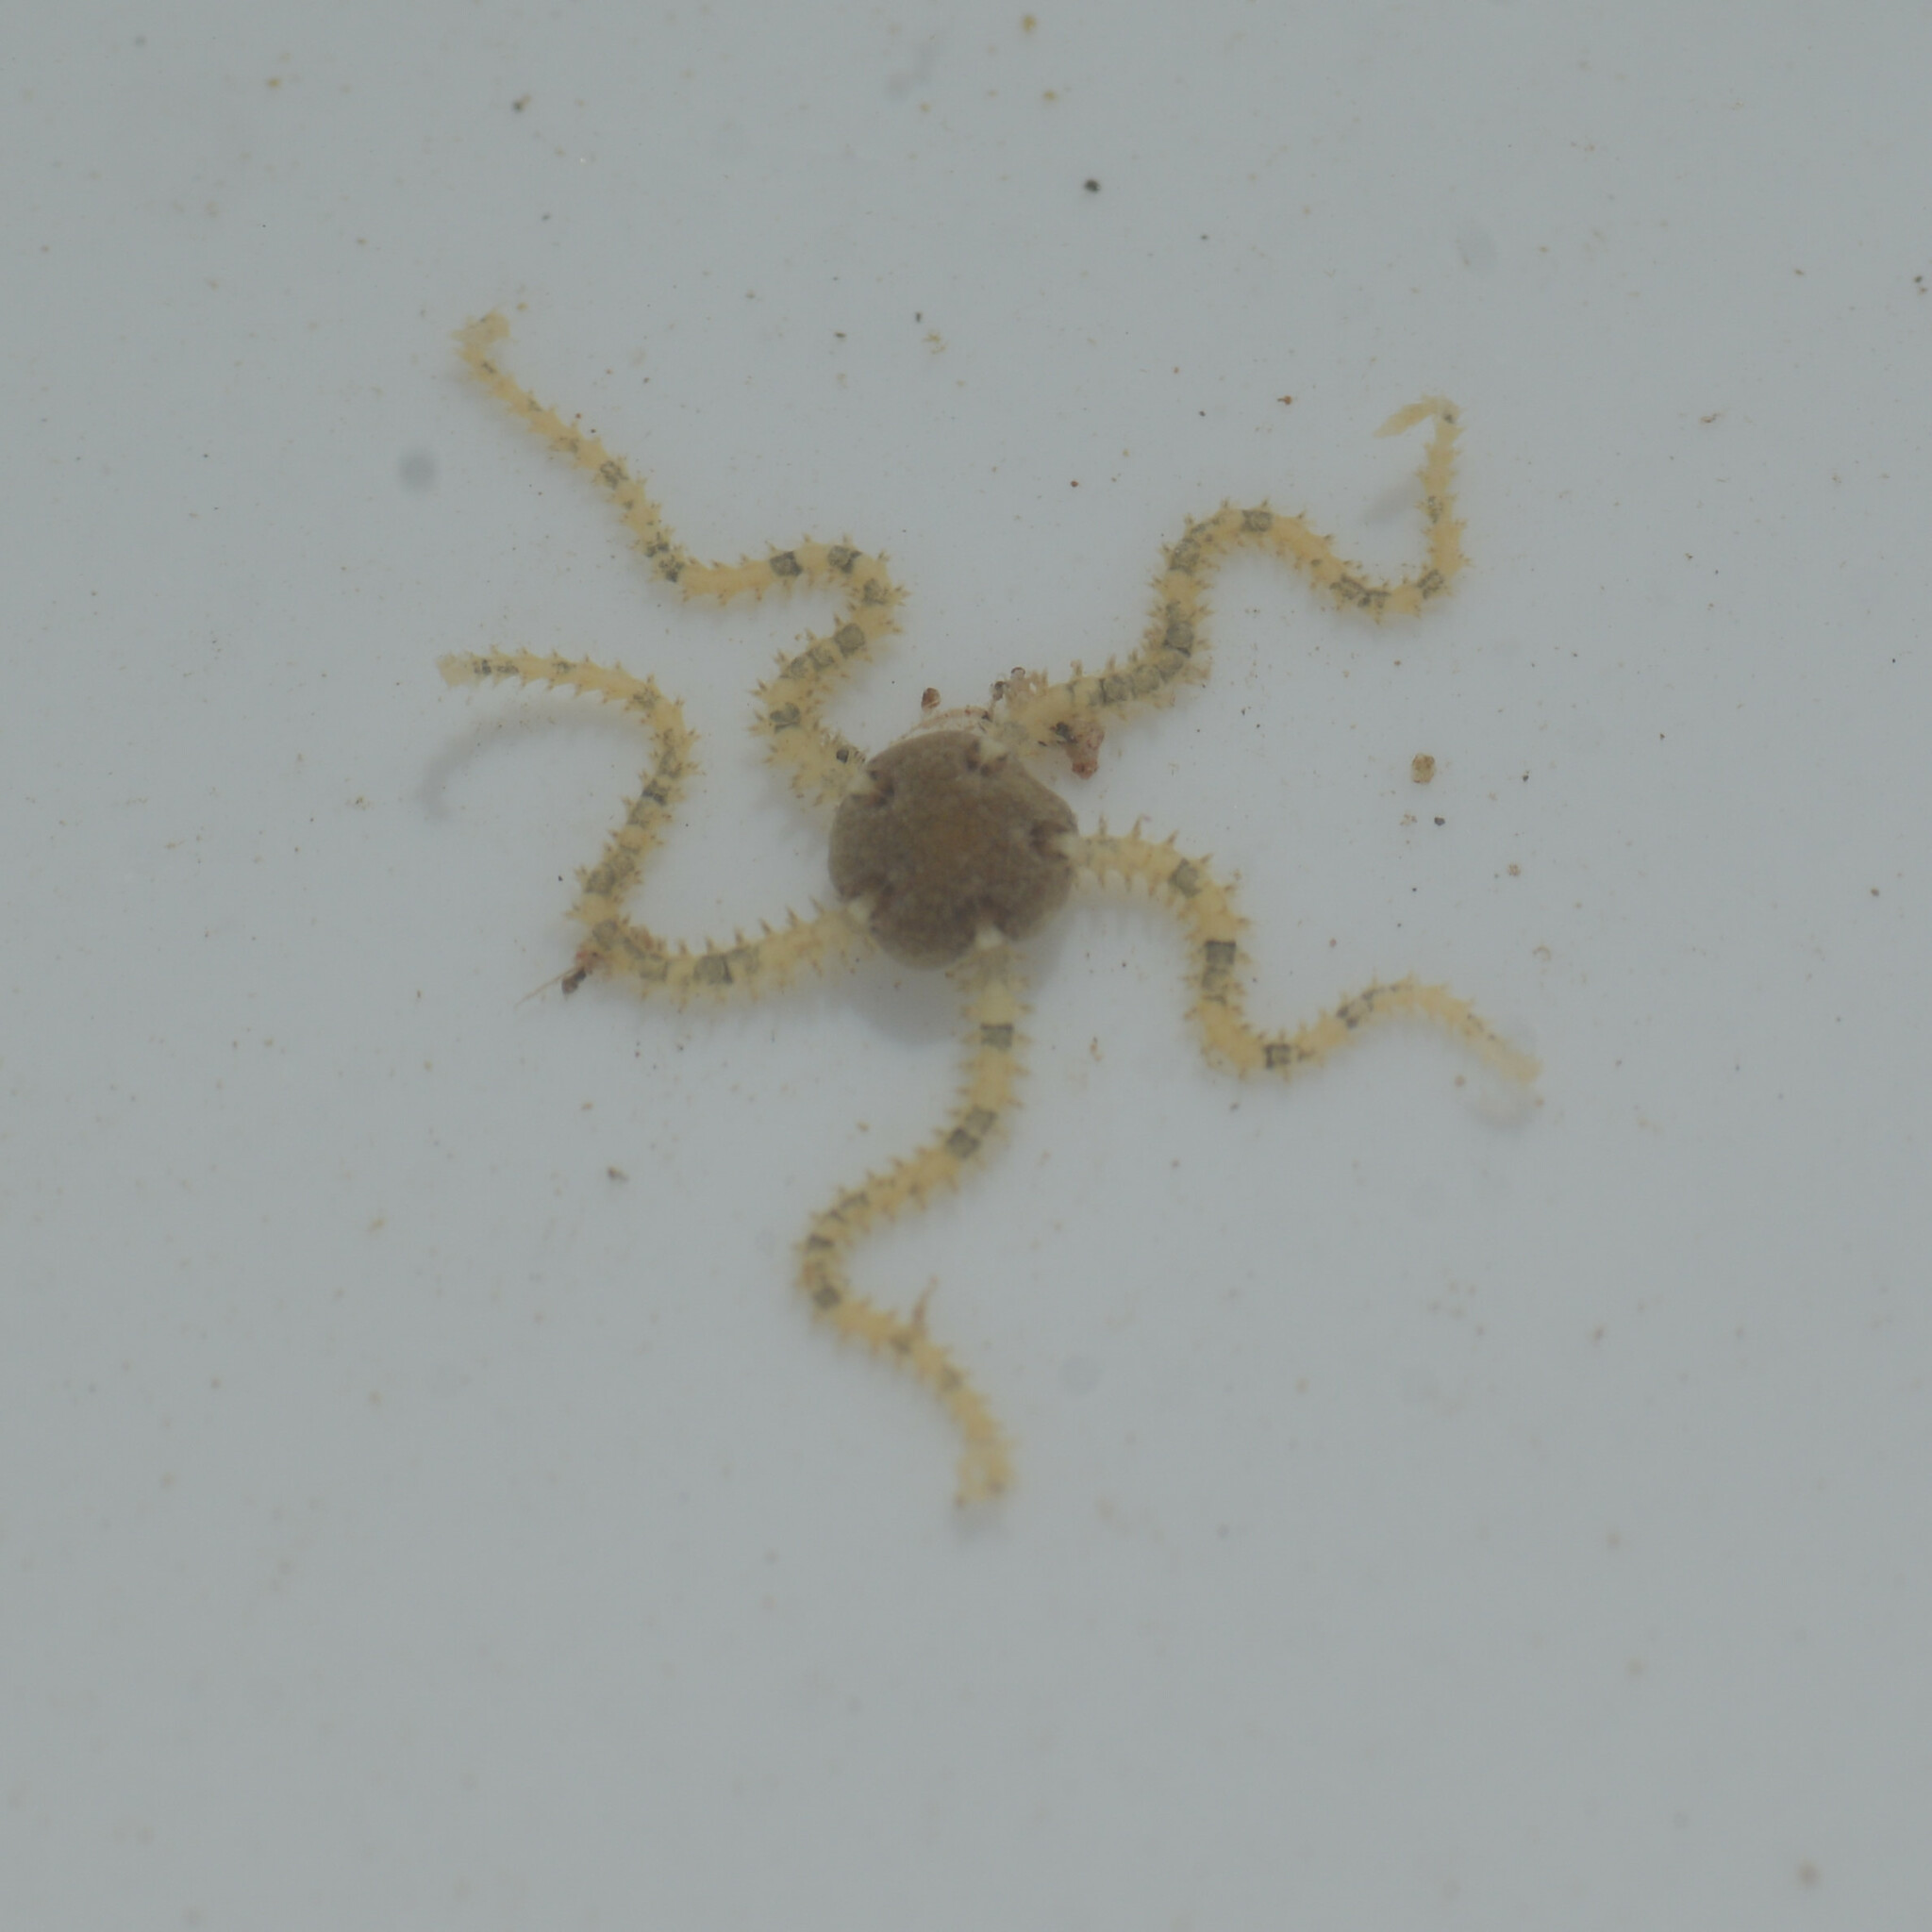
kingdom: Animalia
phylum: Echinodermata
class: Ophiuroidea
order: Amphilepidida
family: Amphiuridae
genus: Amphipholis
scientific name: Amphipholis squamata
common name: Brooding snake star
